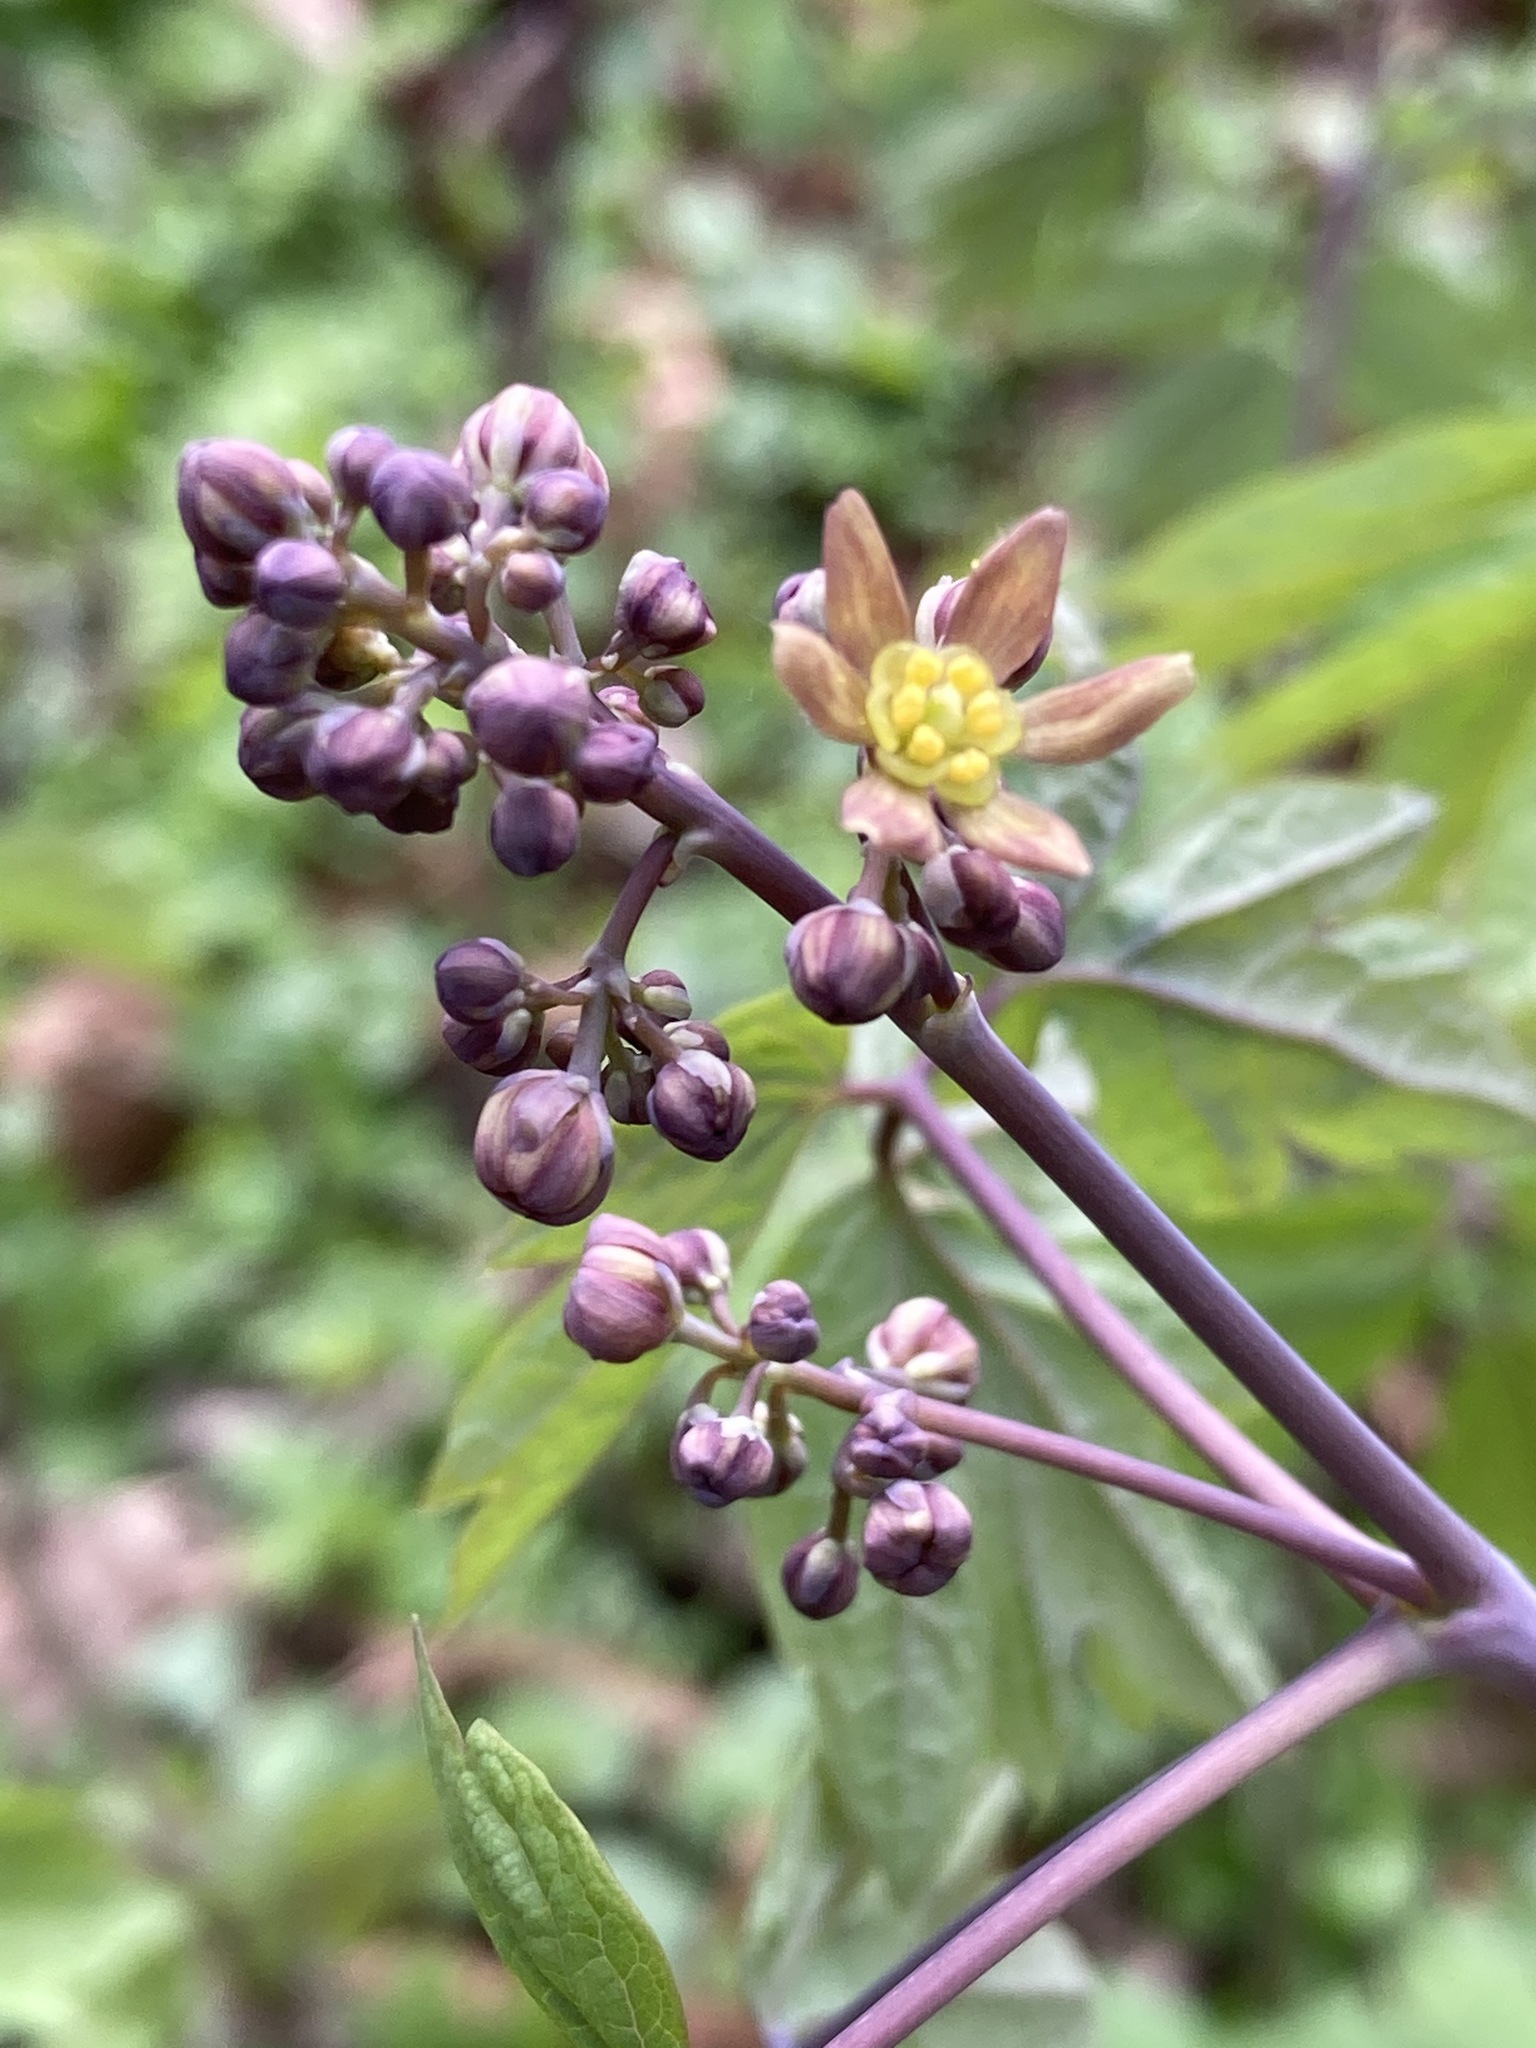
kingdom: Plantae
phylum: Tracheophyta
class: Magnoliopsida
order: Ranunculales
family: Berberidaceae
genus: Caulophyllum
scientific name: Caulophyllum thalictroides
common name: Blue cohosh
